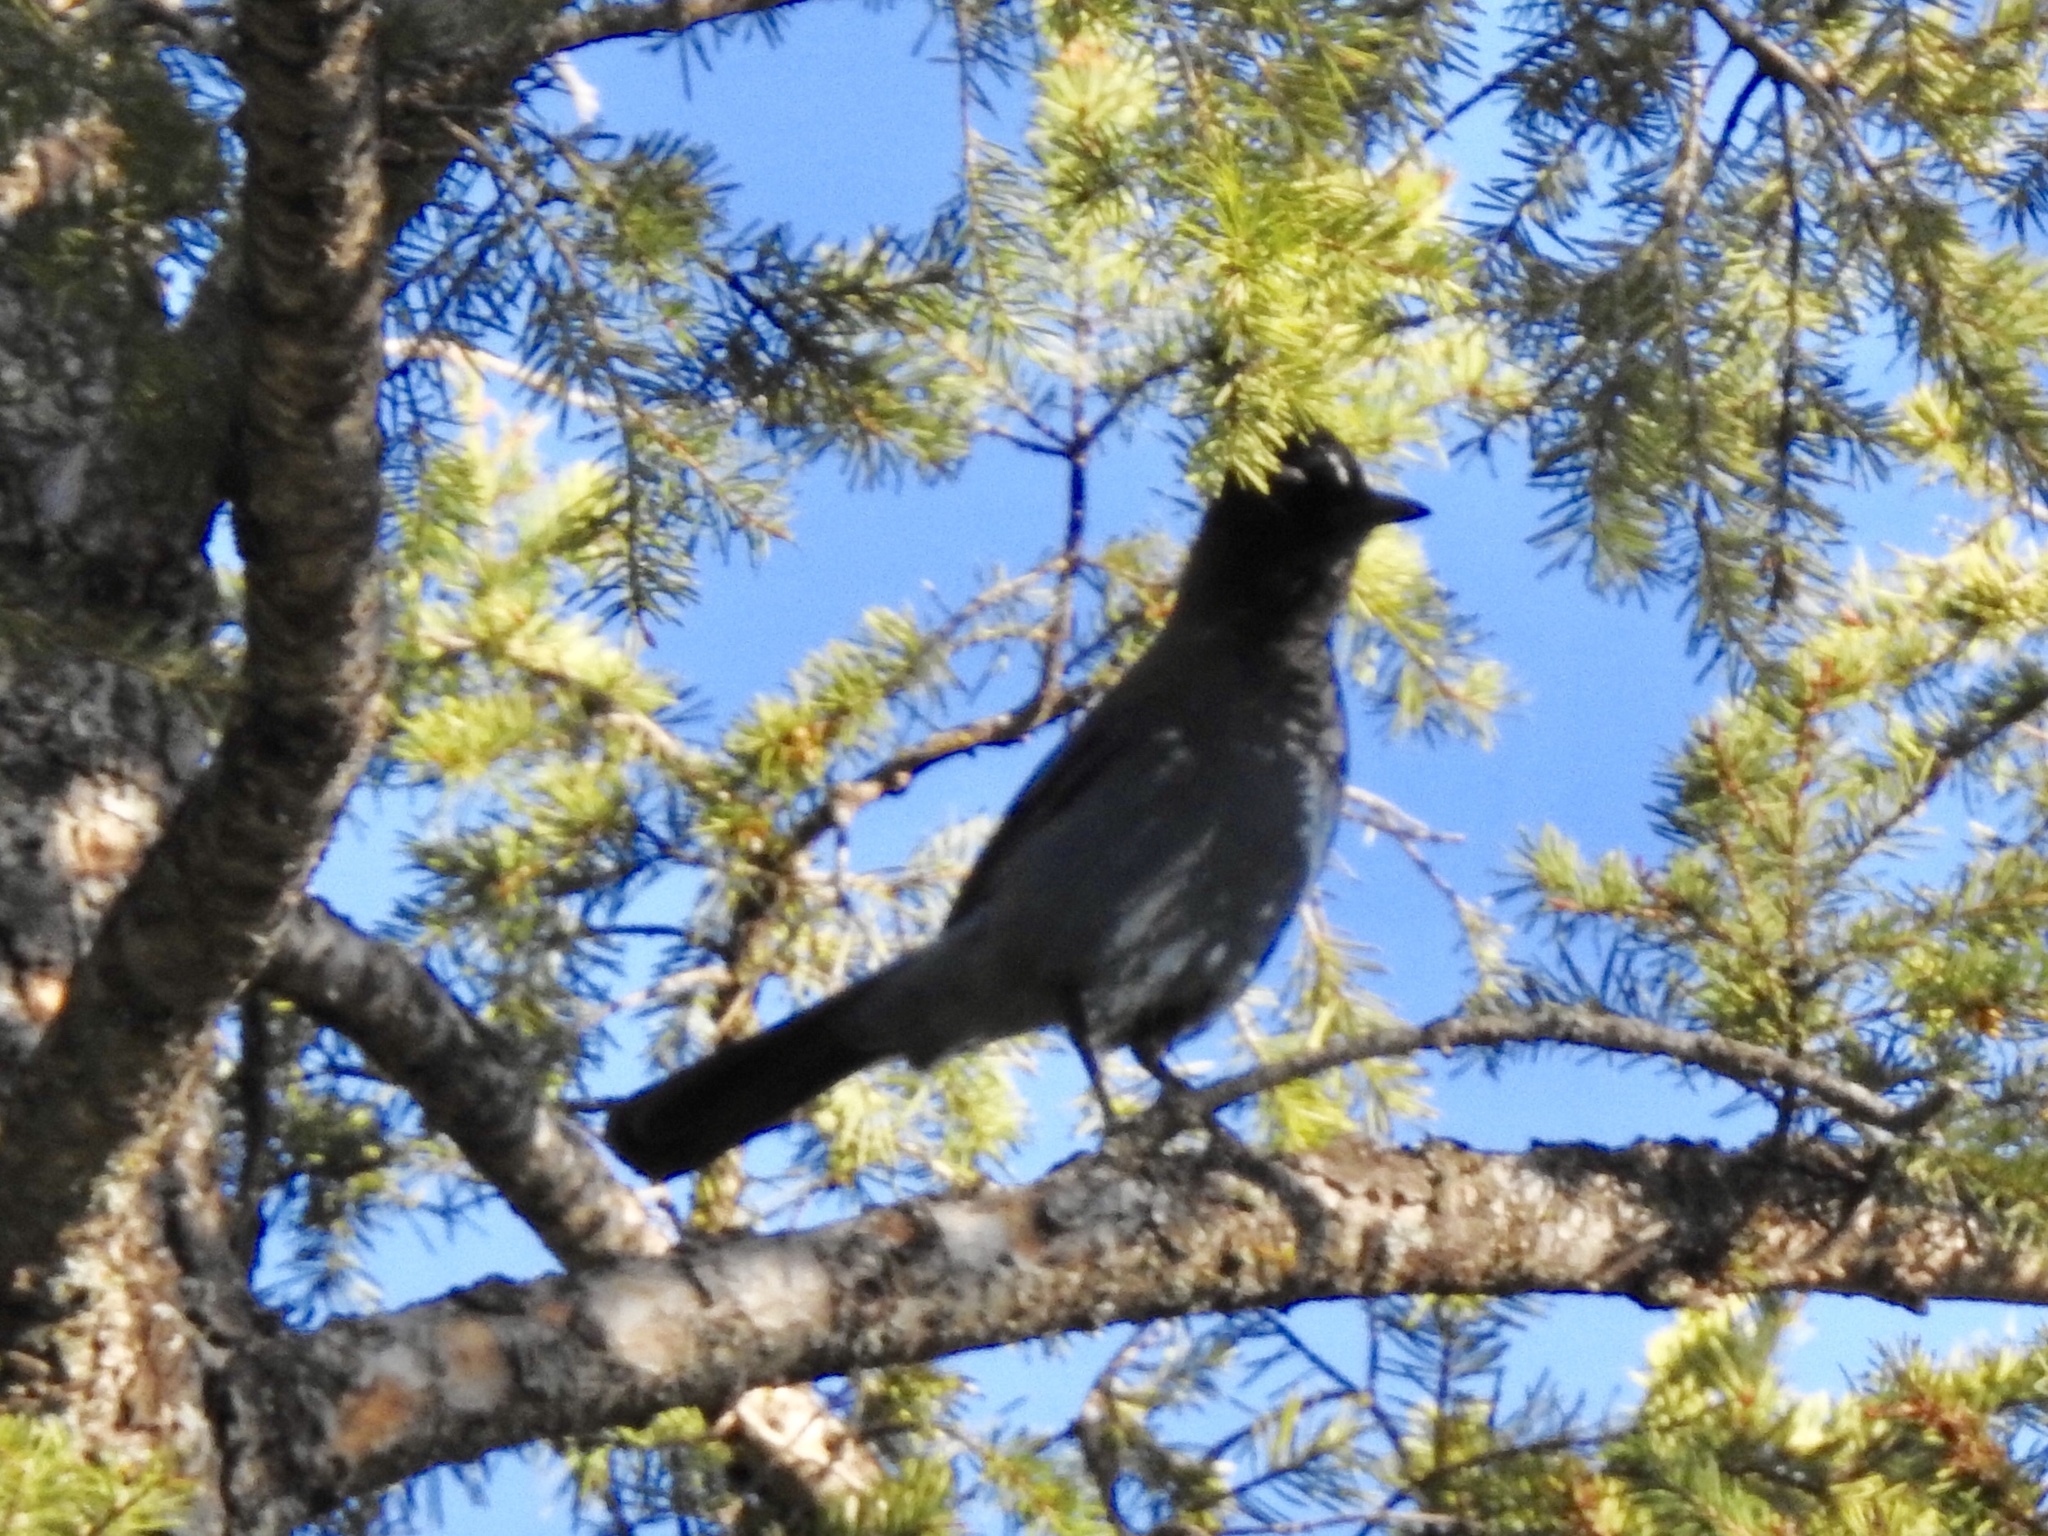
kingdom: Animalia
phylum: Chordata
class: Aves
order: Passeriformes
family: Corvidae
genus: Cyanocitta
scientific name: Cyanocitta stelleri
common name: Steller's jay
